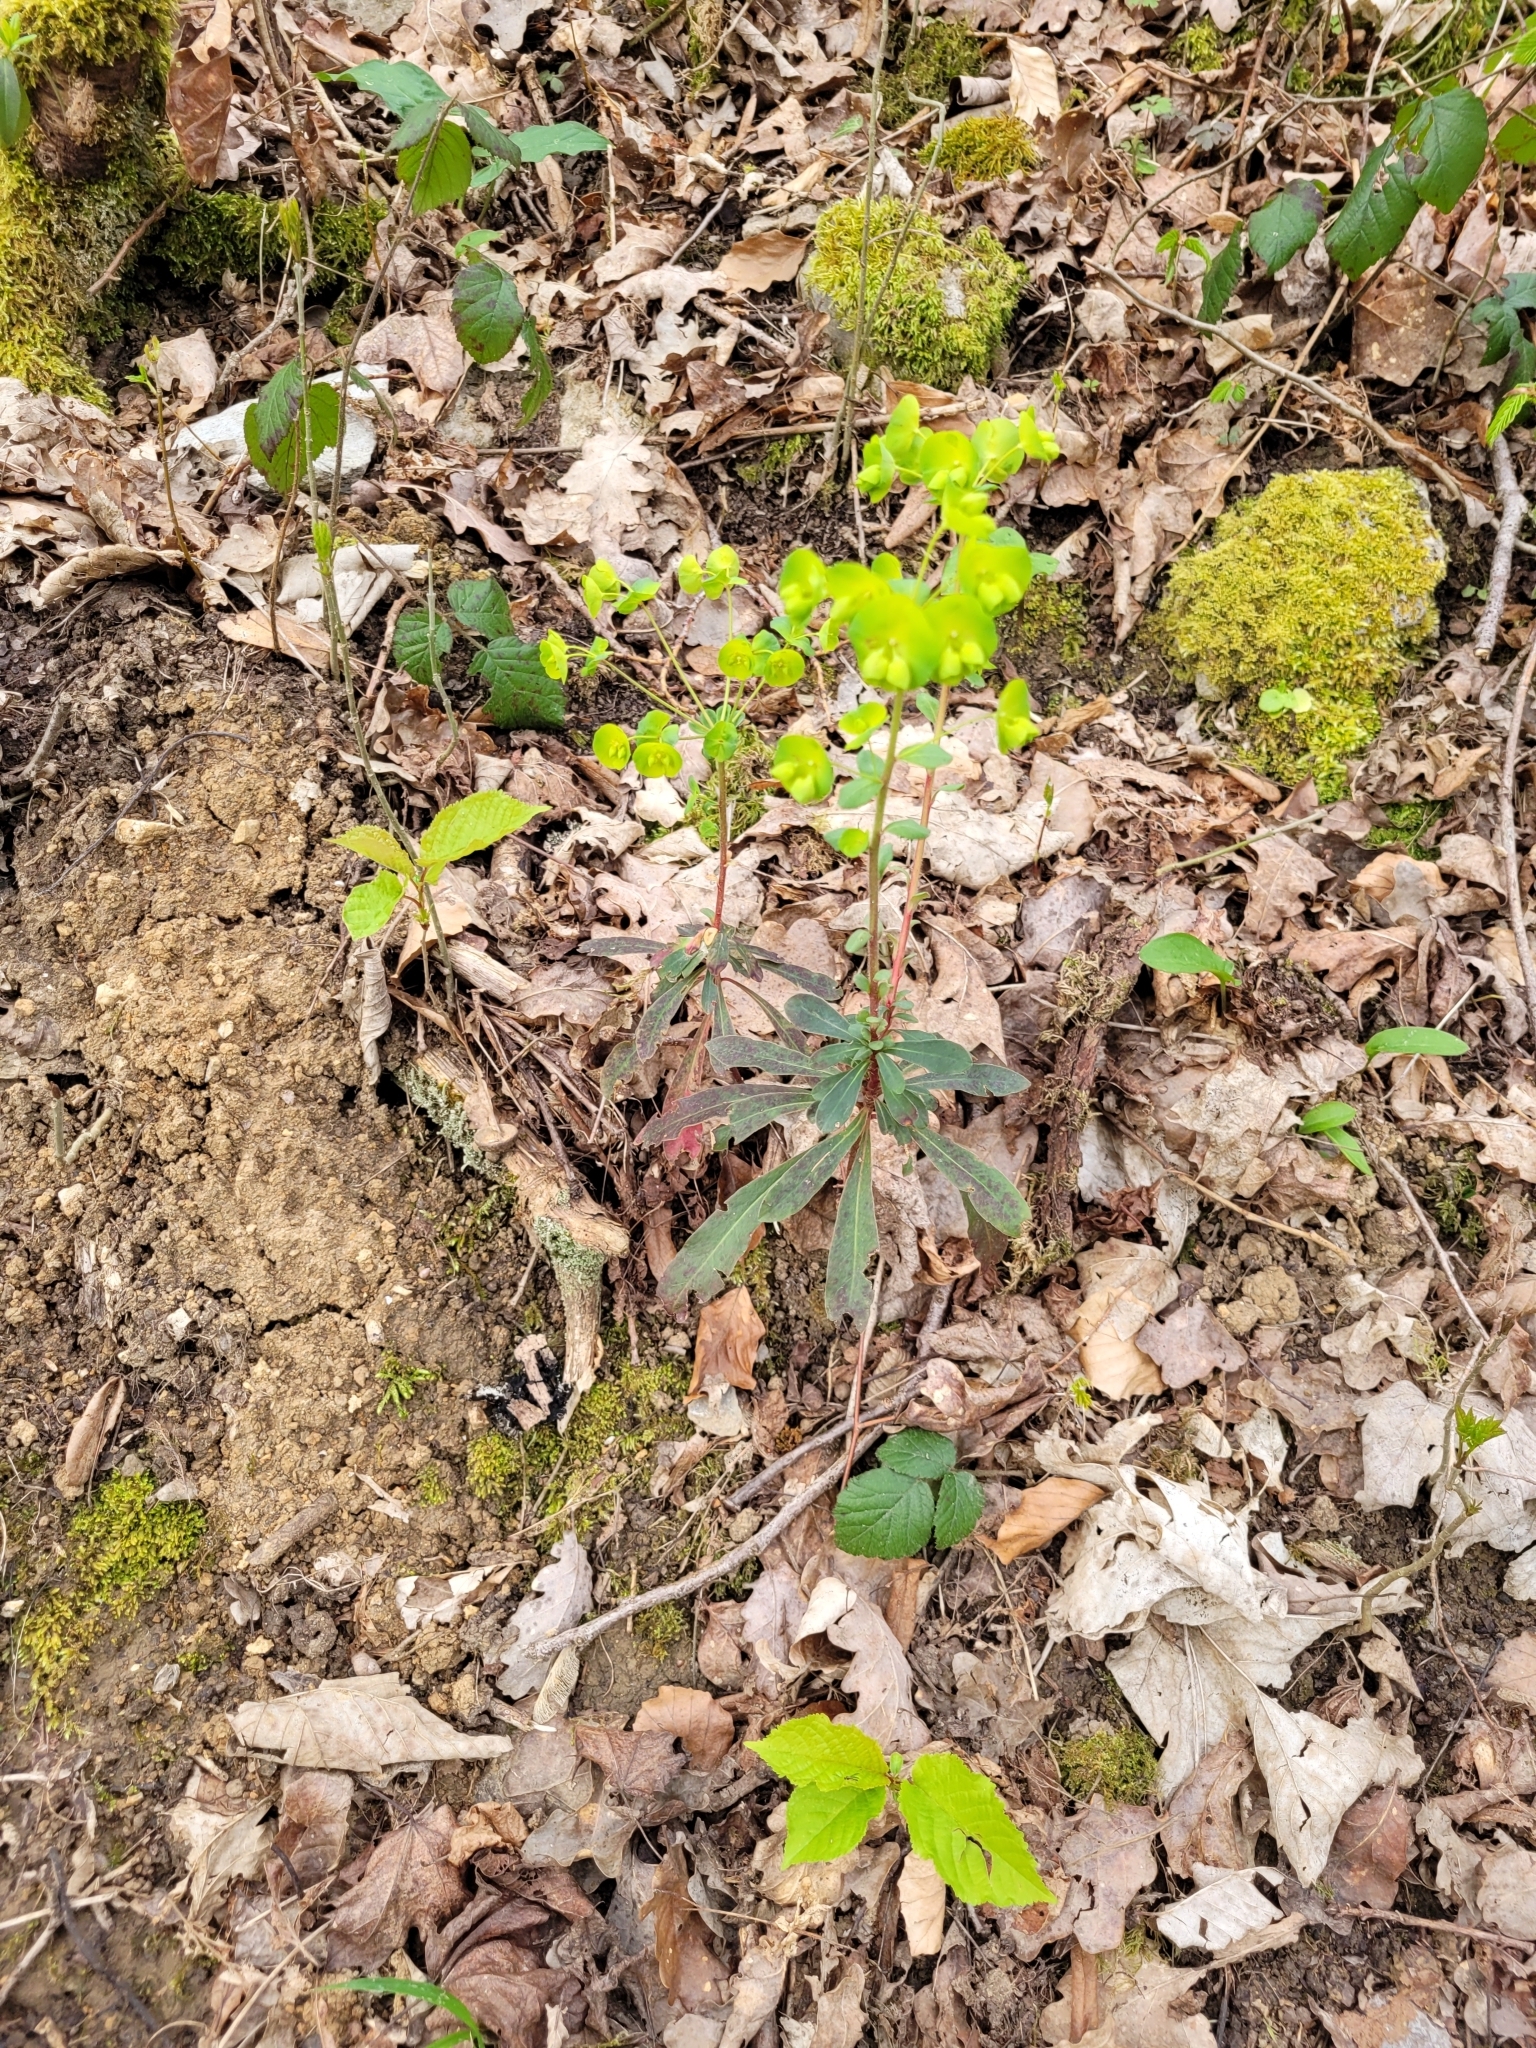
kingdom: Plantae
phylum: Tracheophyta
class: Magnoliopsida
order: Malpighiales
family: Euphorbiaceae
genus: Euphorbia
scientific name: Euphorbia amygdaloides
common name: Wood spurge
